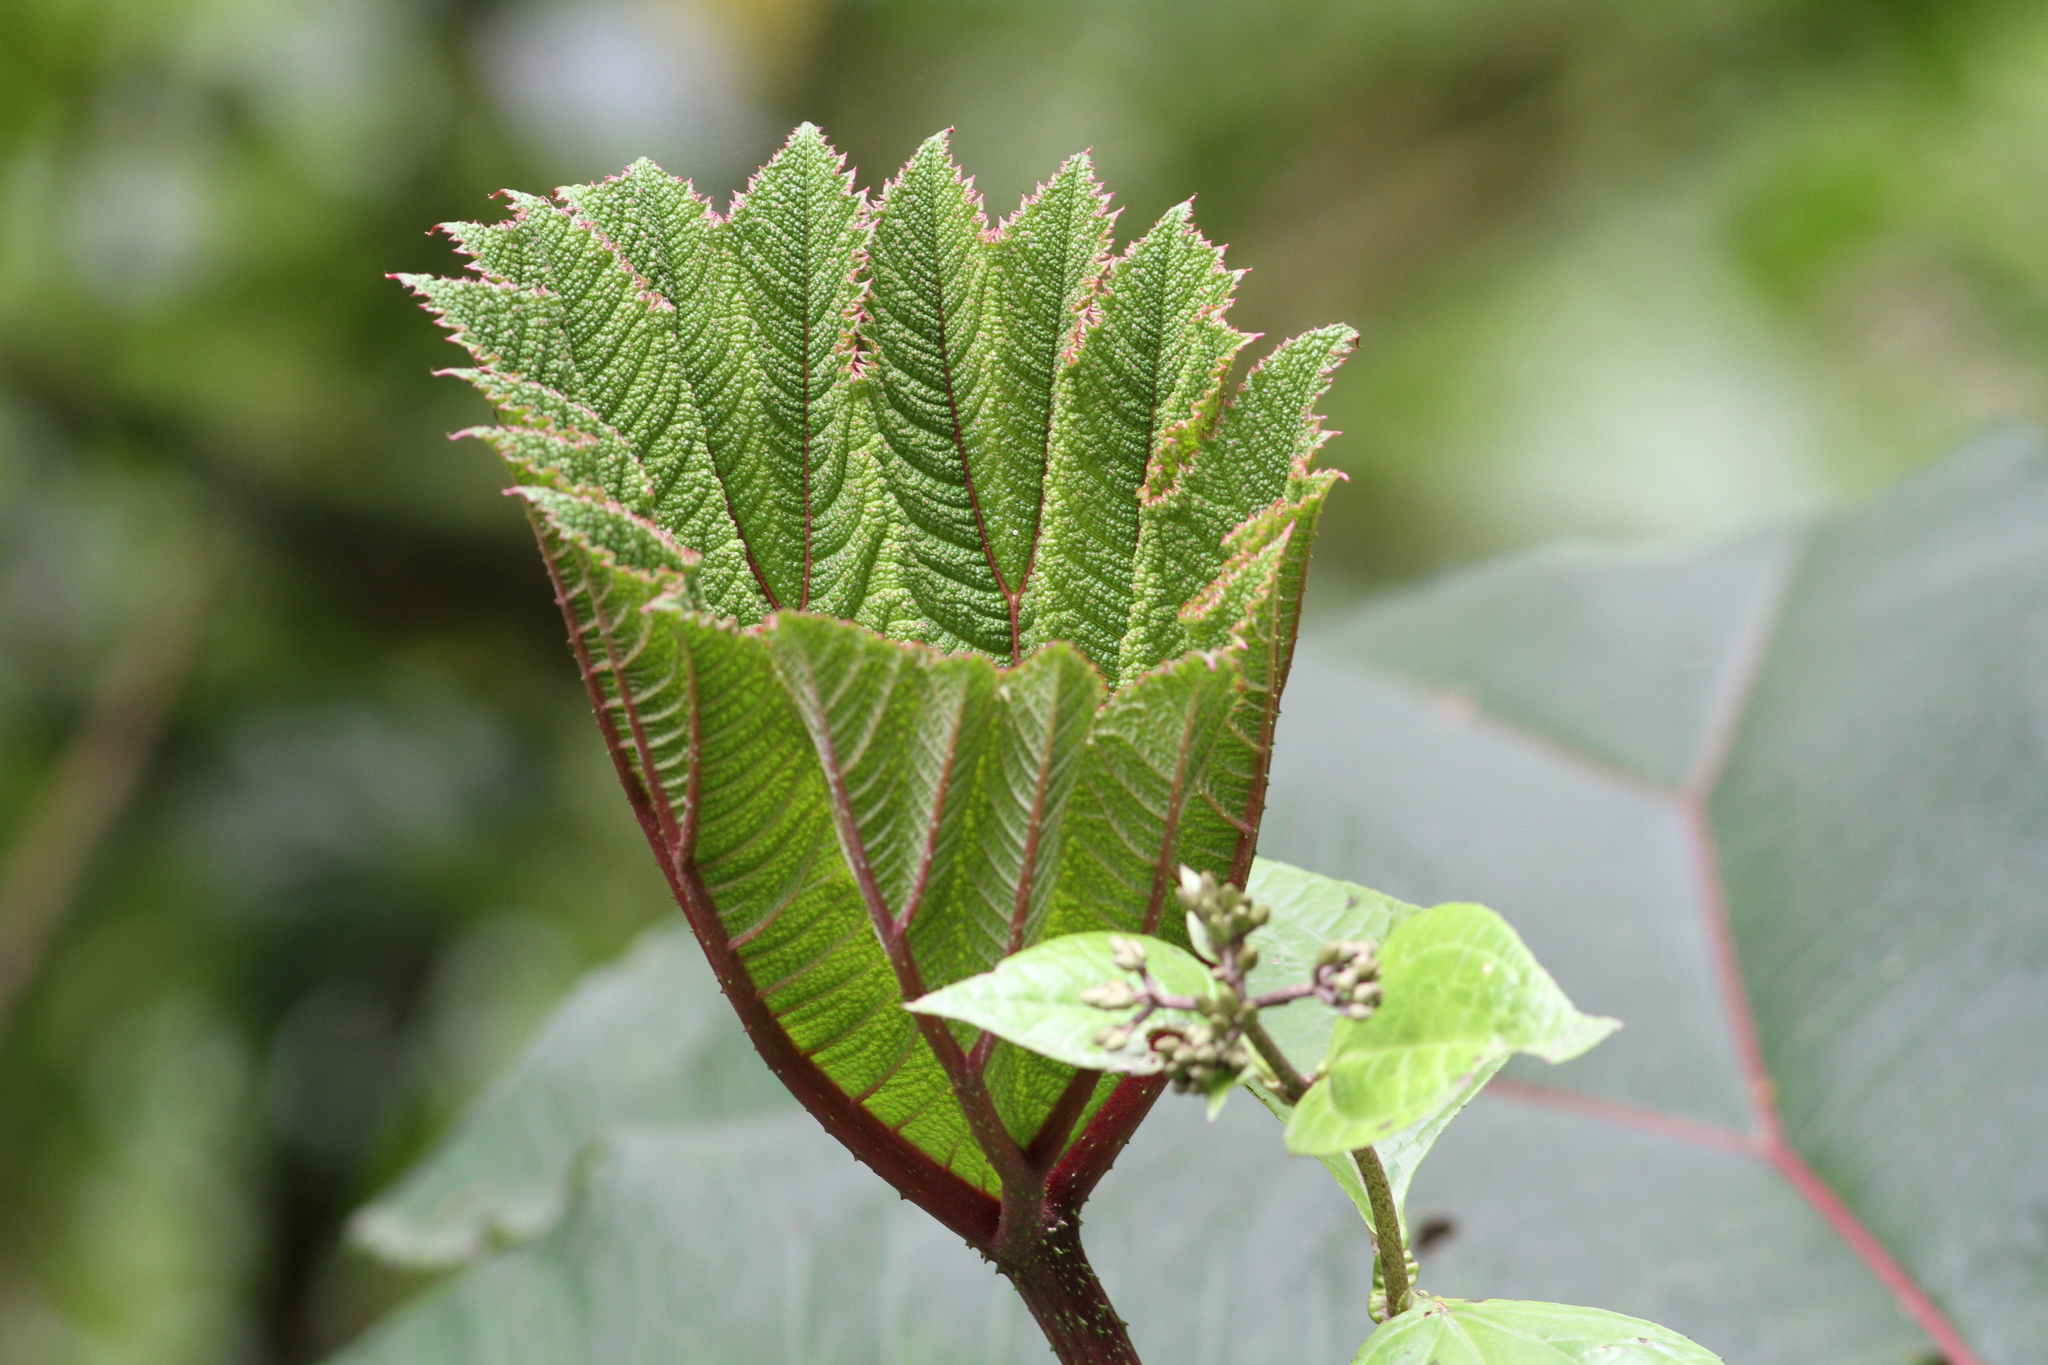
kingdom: Plantae
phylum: Tracheophyta
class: Magnoliopsida
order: Gunnerales
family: Gunneraceae
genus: Gunnera
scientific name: Gunnera insignis
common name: Poorman's umbrella
